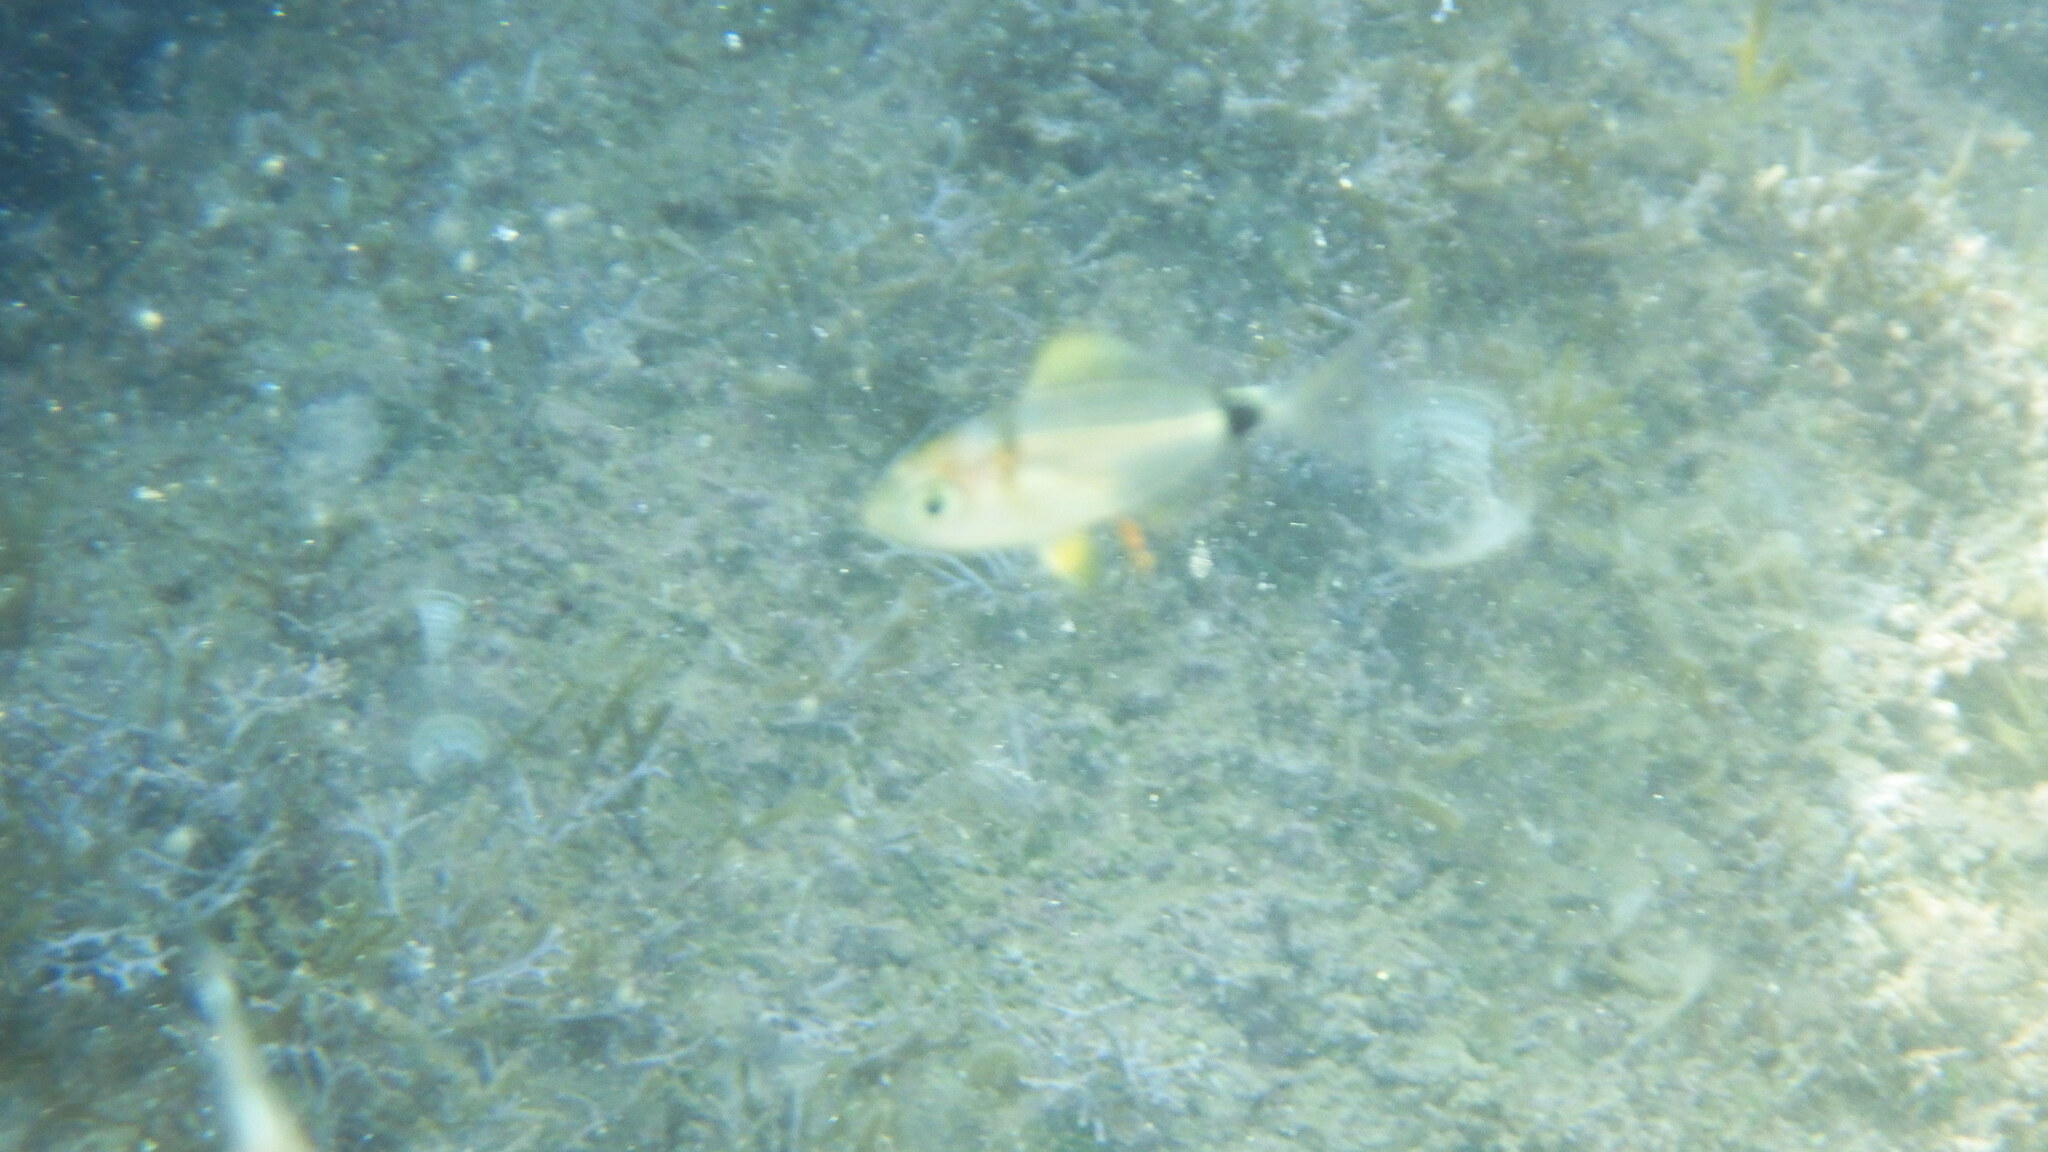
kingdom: Animalia
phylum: Chordata
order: Perciformes
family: Sparidae
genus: Diplodus
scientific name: Diplodus
